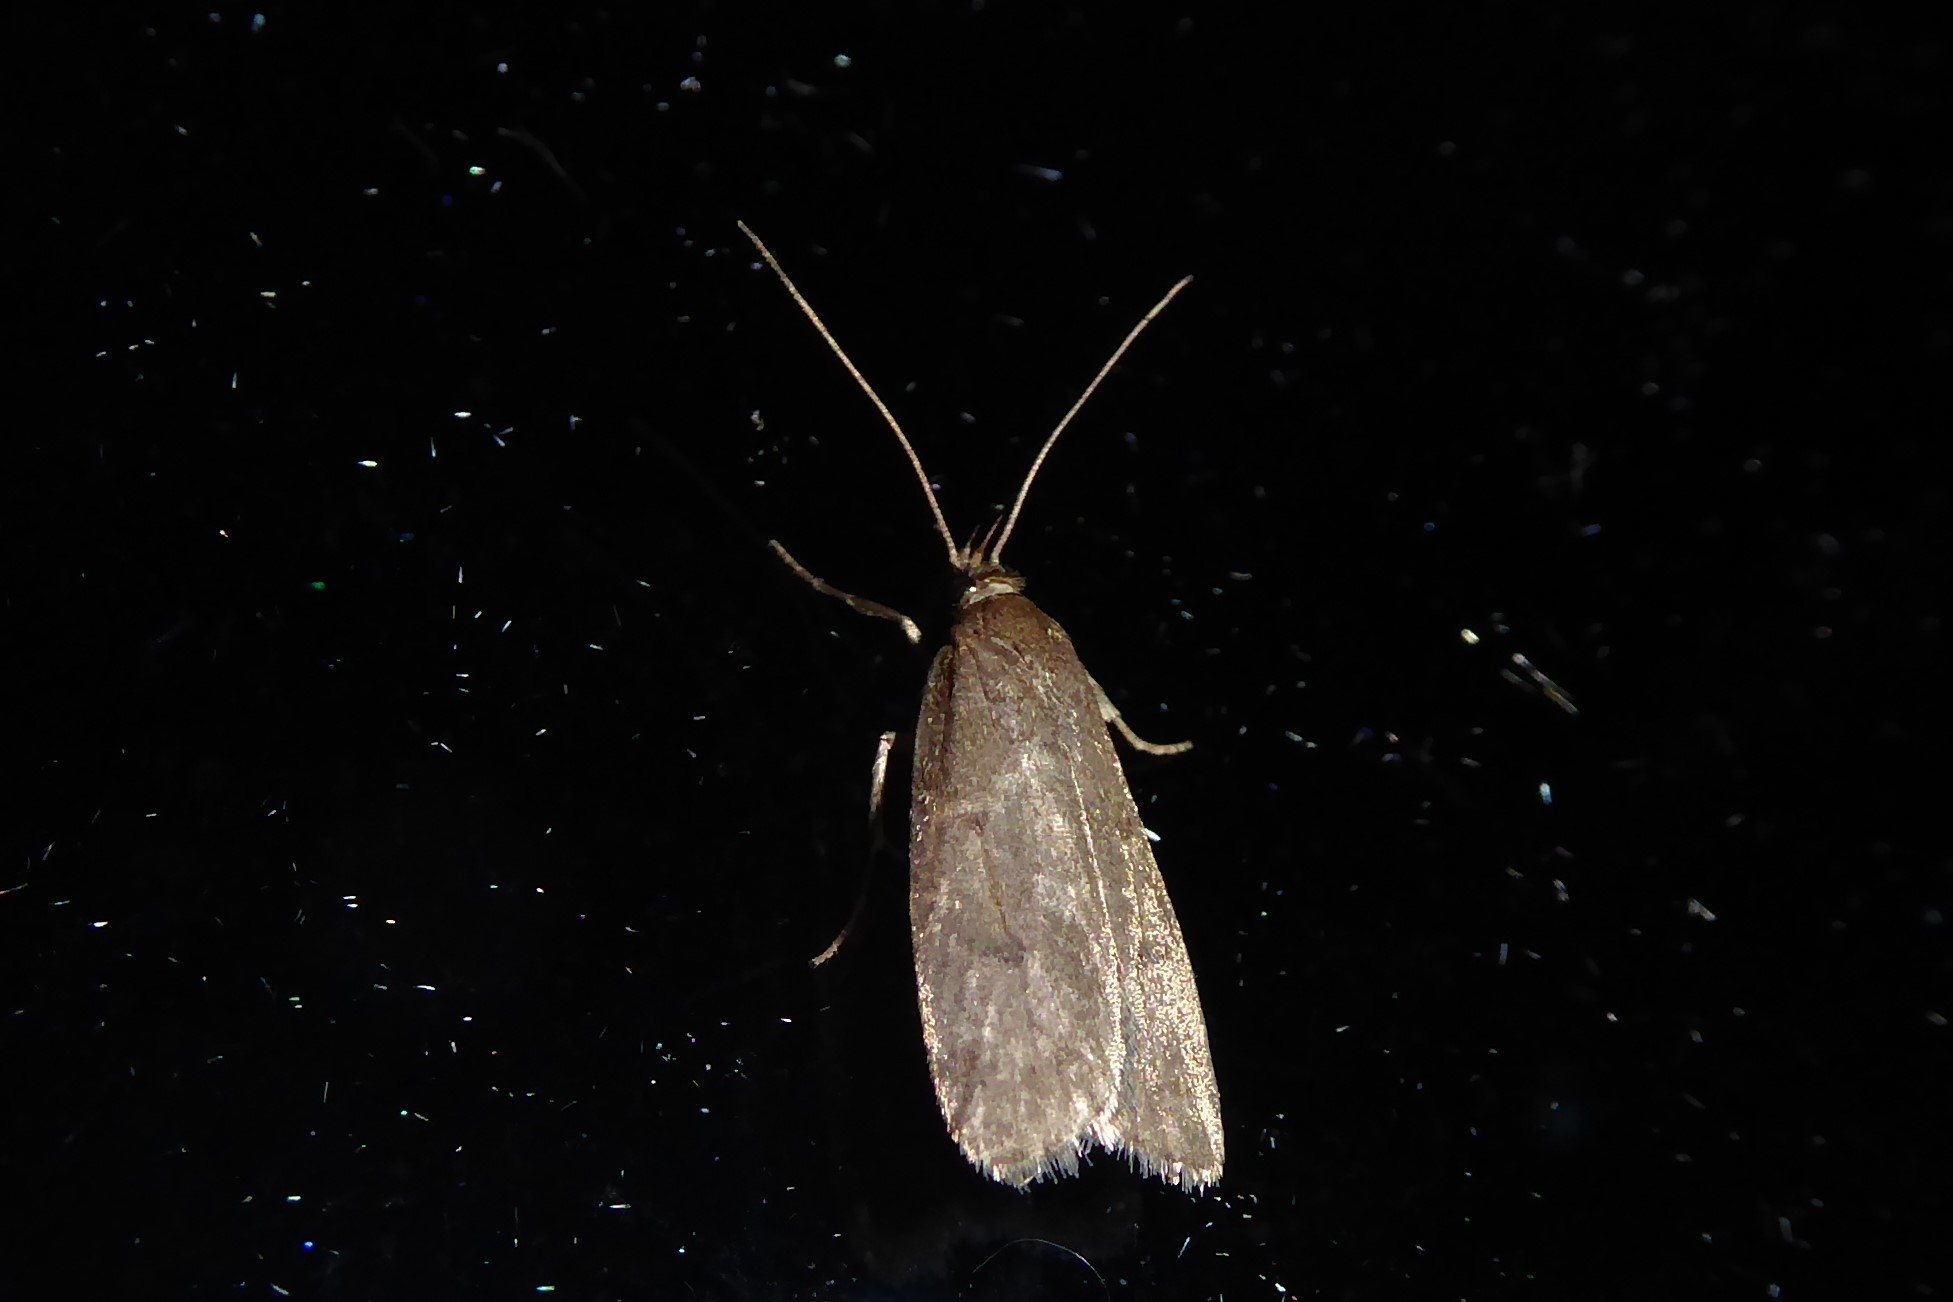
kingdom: Animalia
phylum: Arthropoda
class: Insecta
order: Lepidoptera
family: Depressariidae
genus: Phaeosaces
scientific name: Phaeosaces apocrypta
